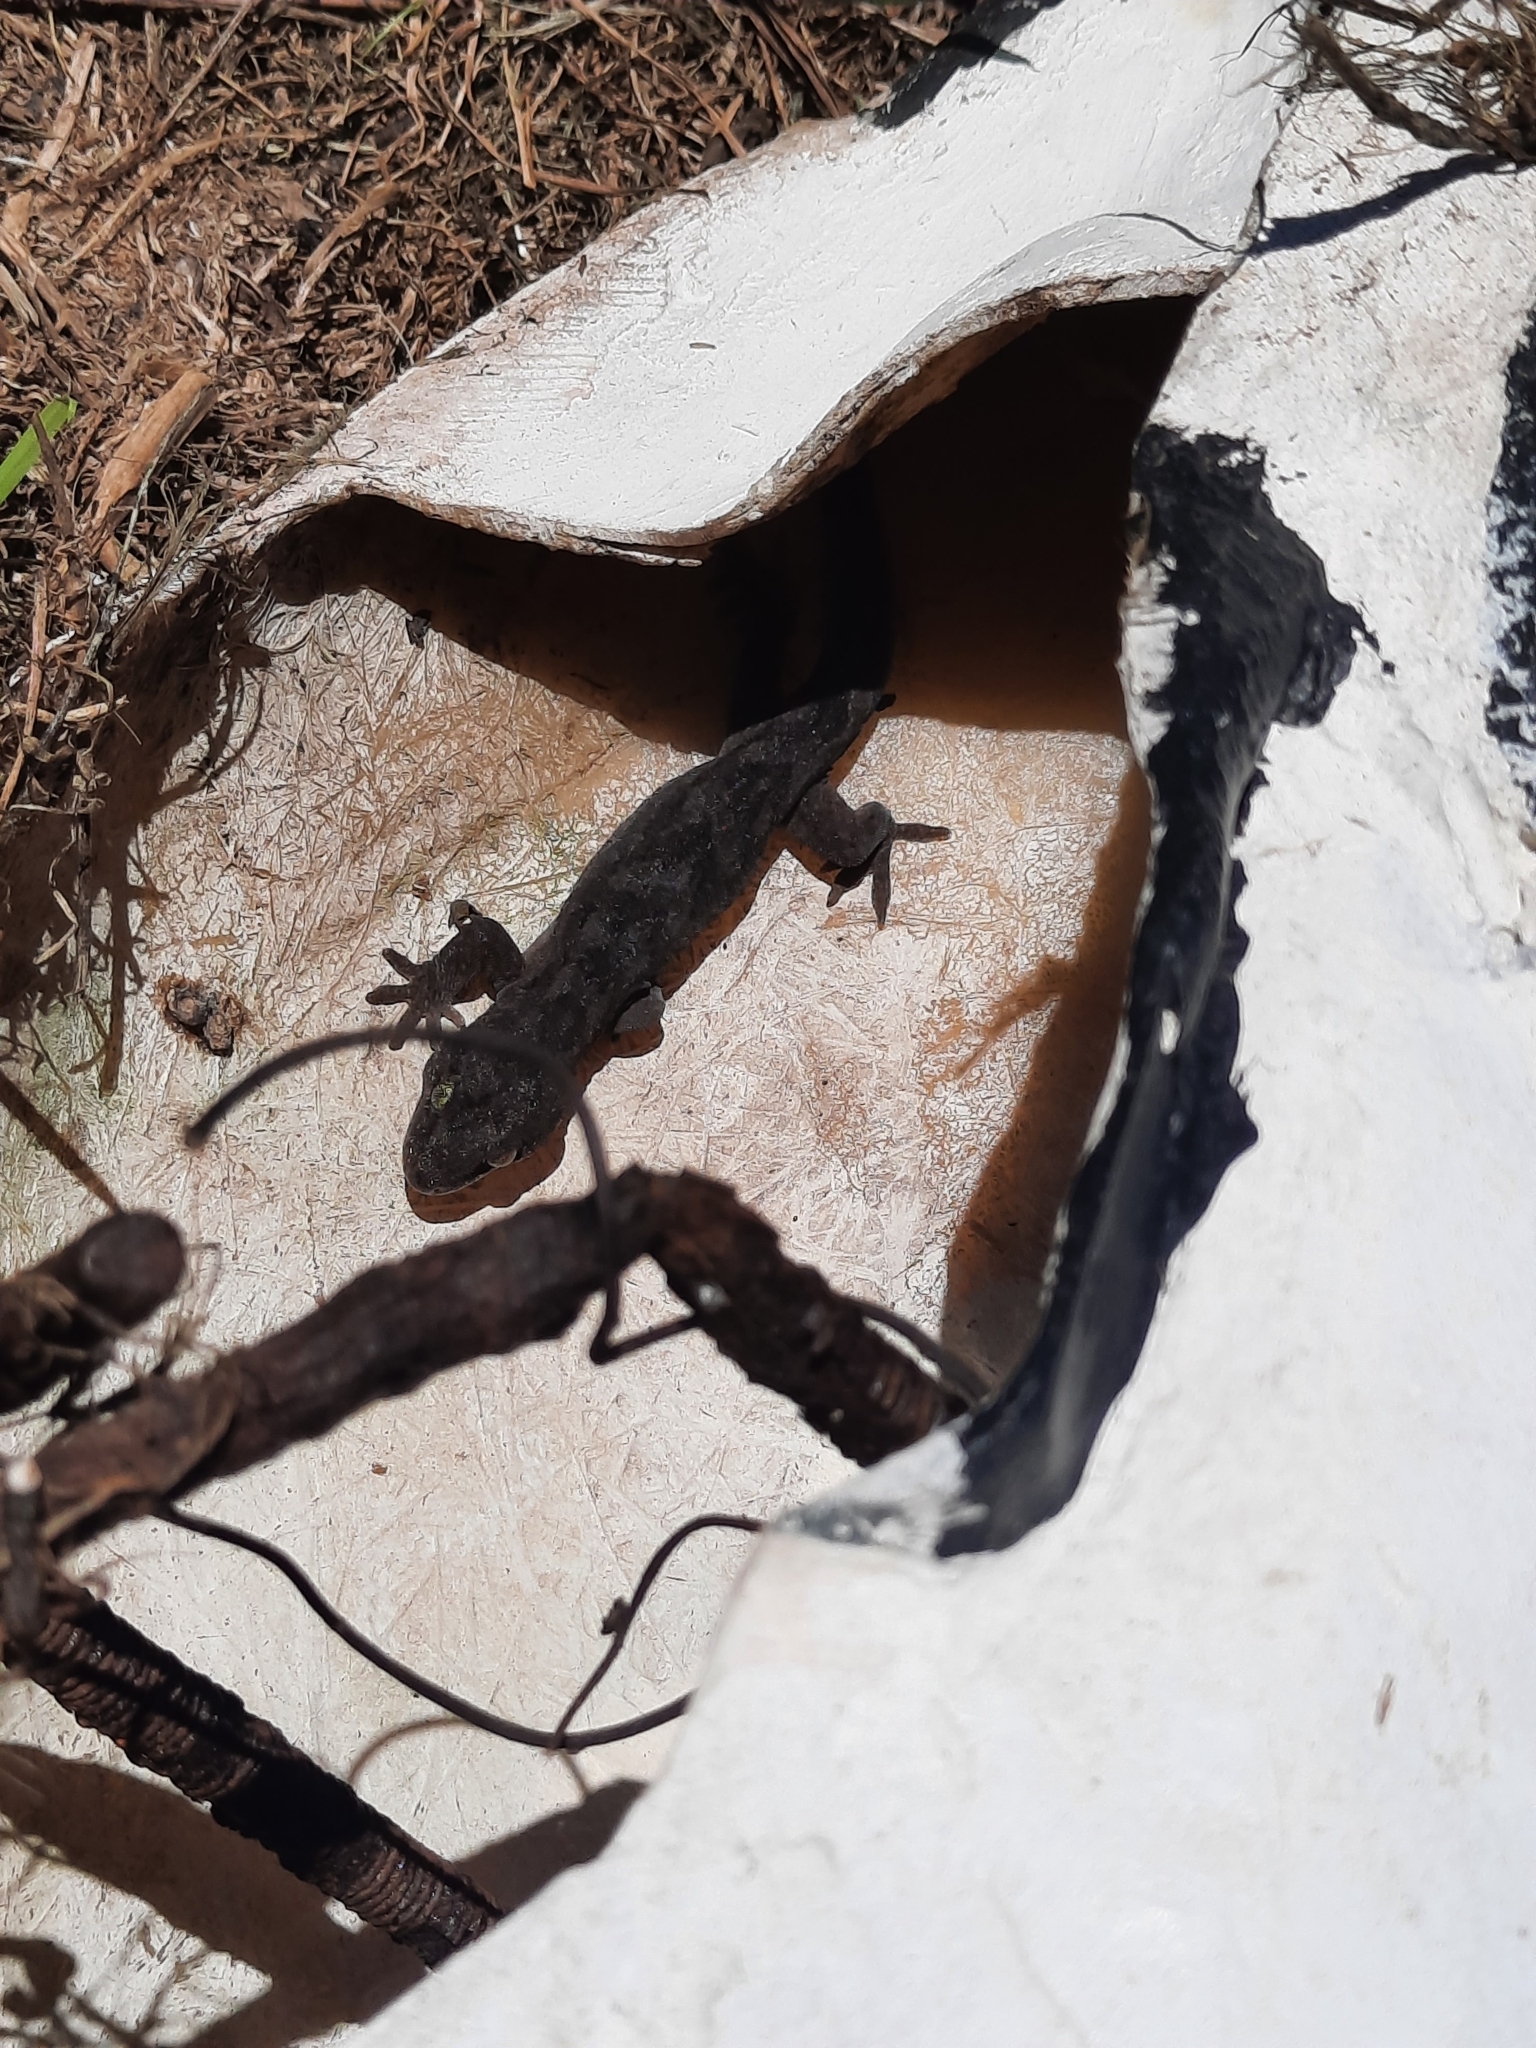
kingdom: Animalia
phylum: Chordata
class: Squamata
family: Diplodactylidae
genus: Woodworthia
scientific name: Woodworthia maculata
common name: Raukawa gecko
